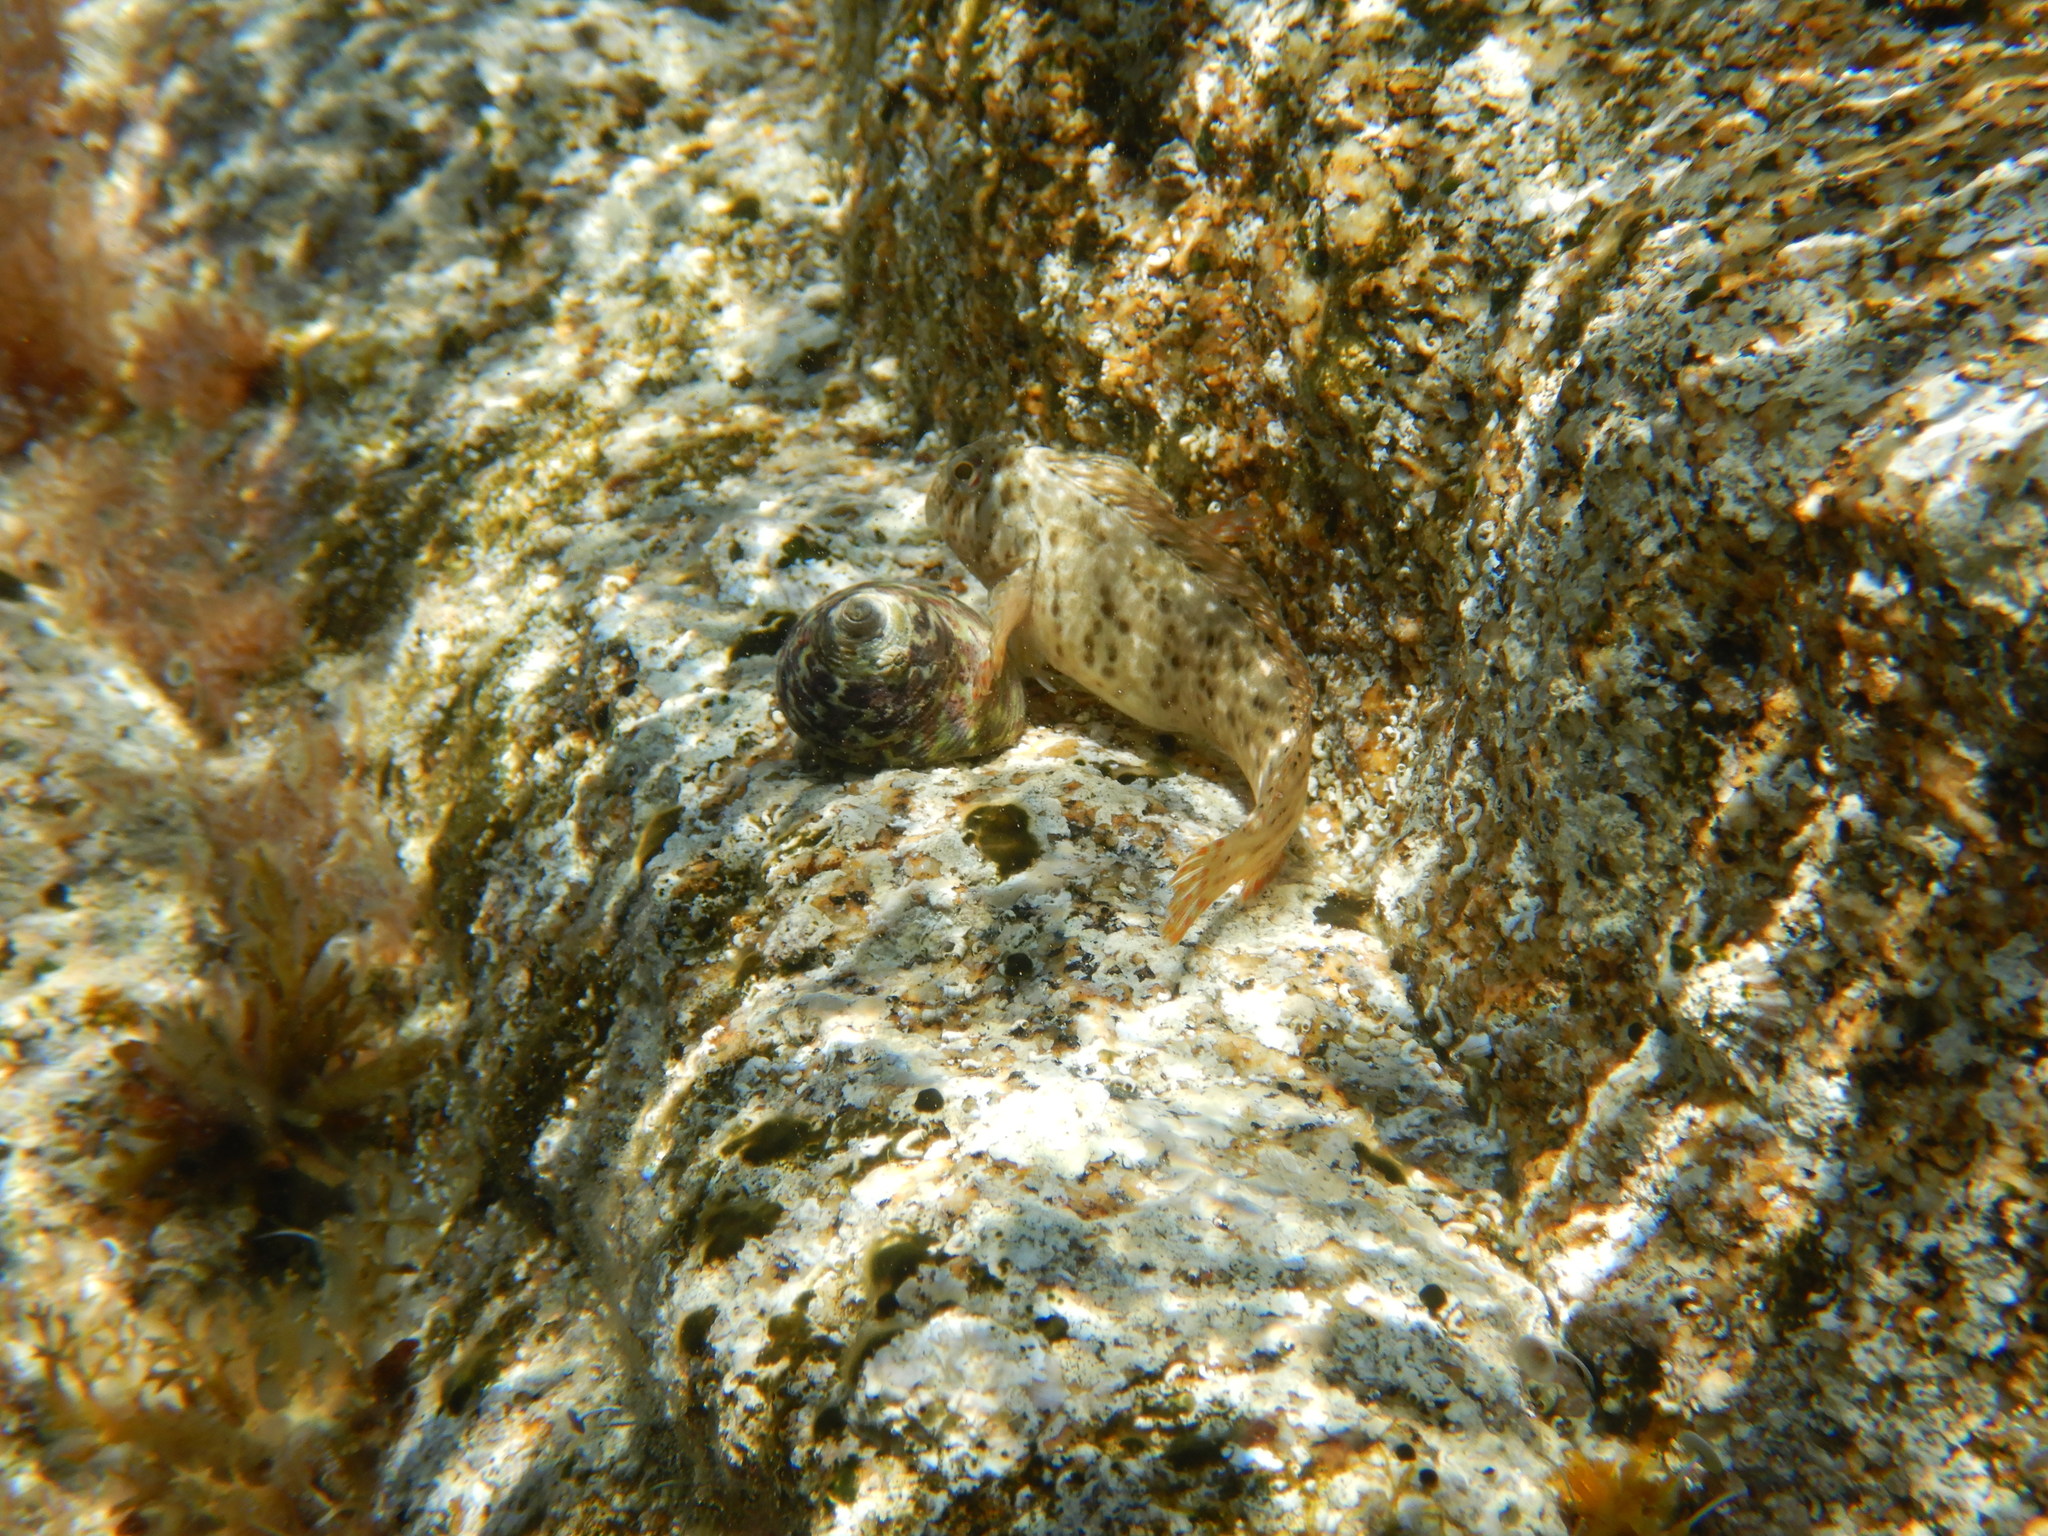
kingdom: Animalia
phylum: Chordata
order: Perciformes
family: Blenniidae
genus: Parablennius
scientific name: Parablennius sanguinolentus
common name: Black sea blenny
